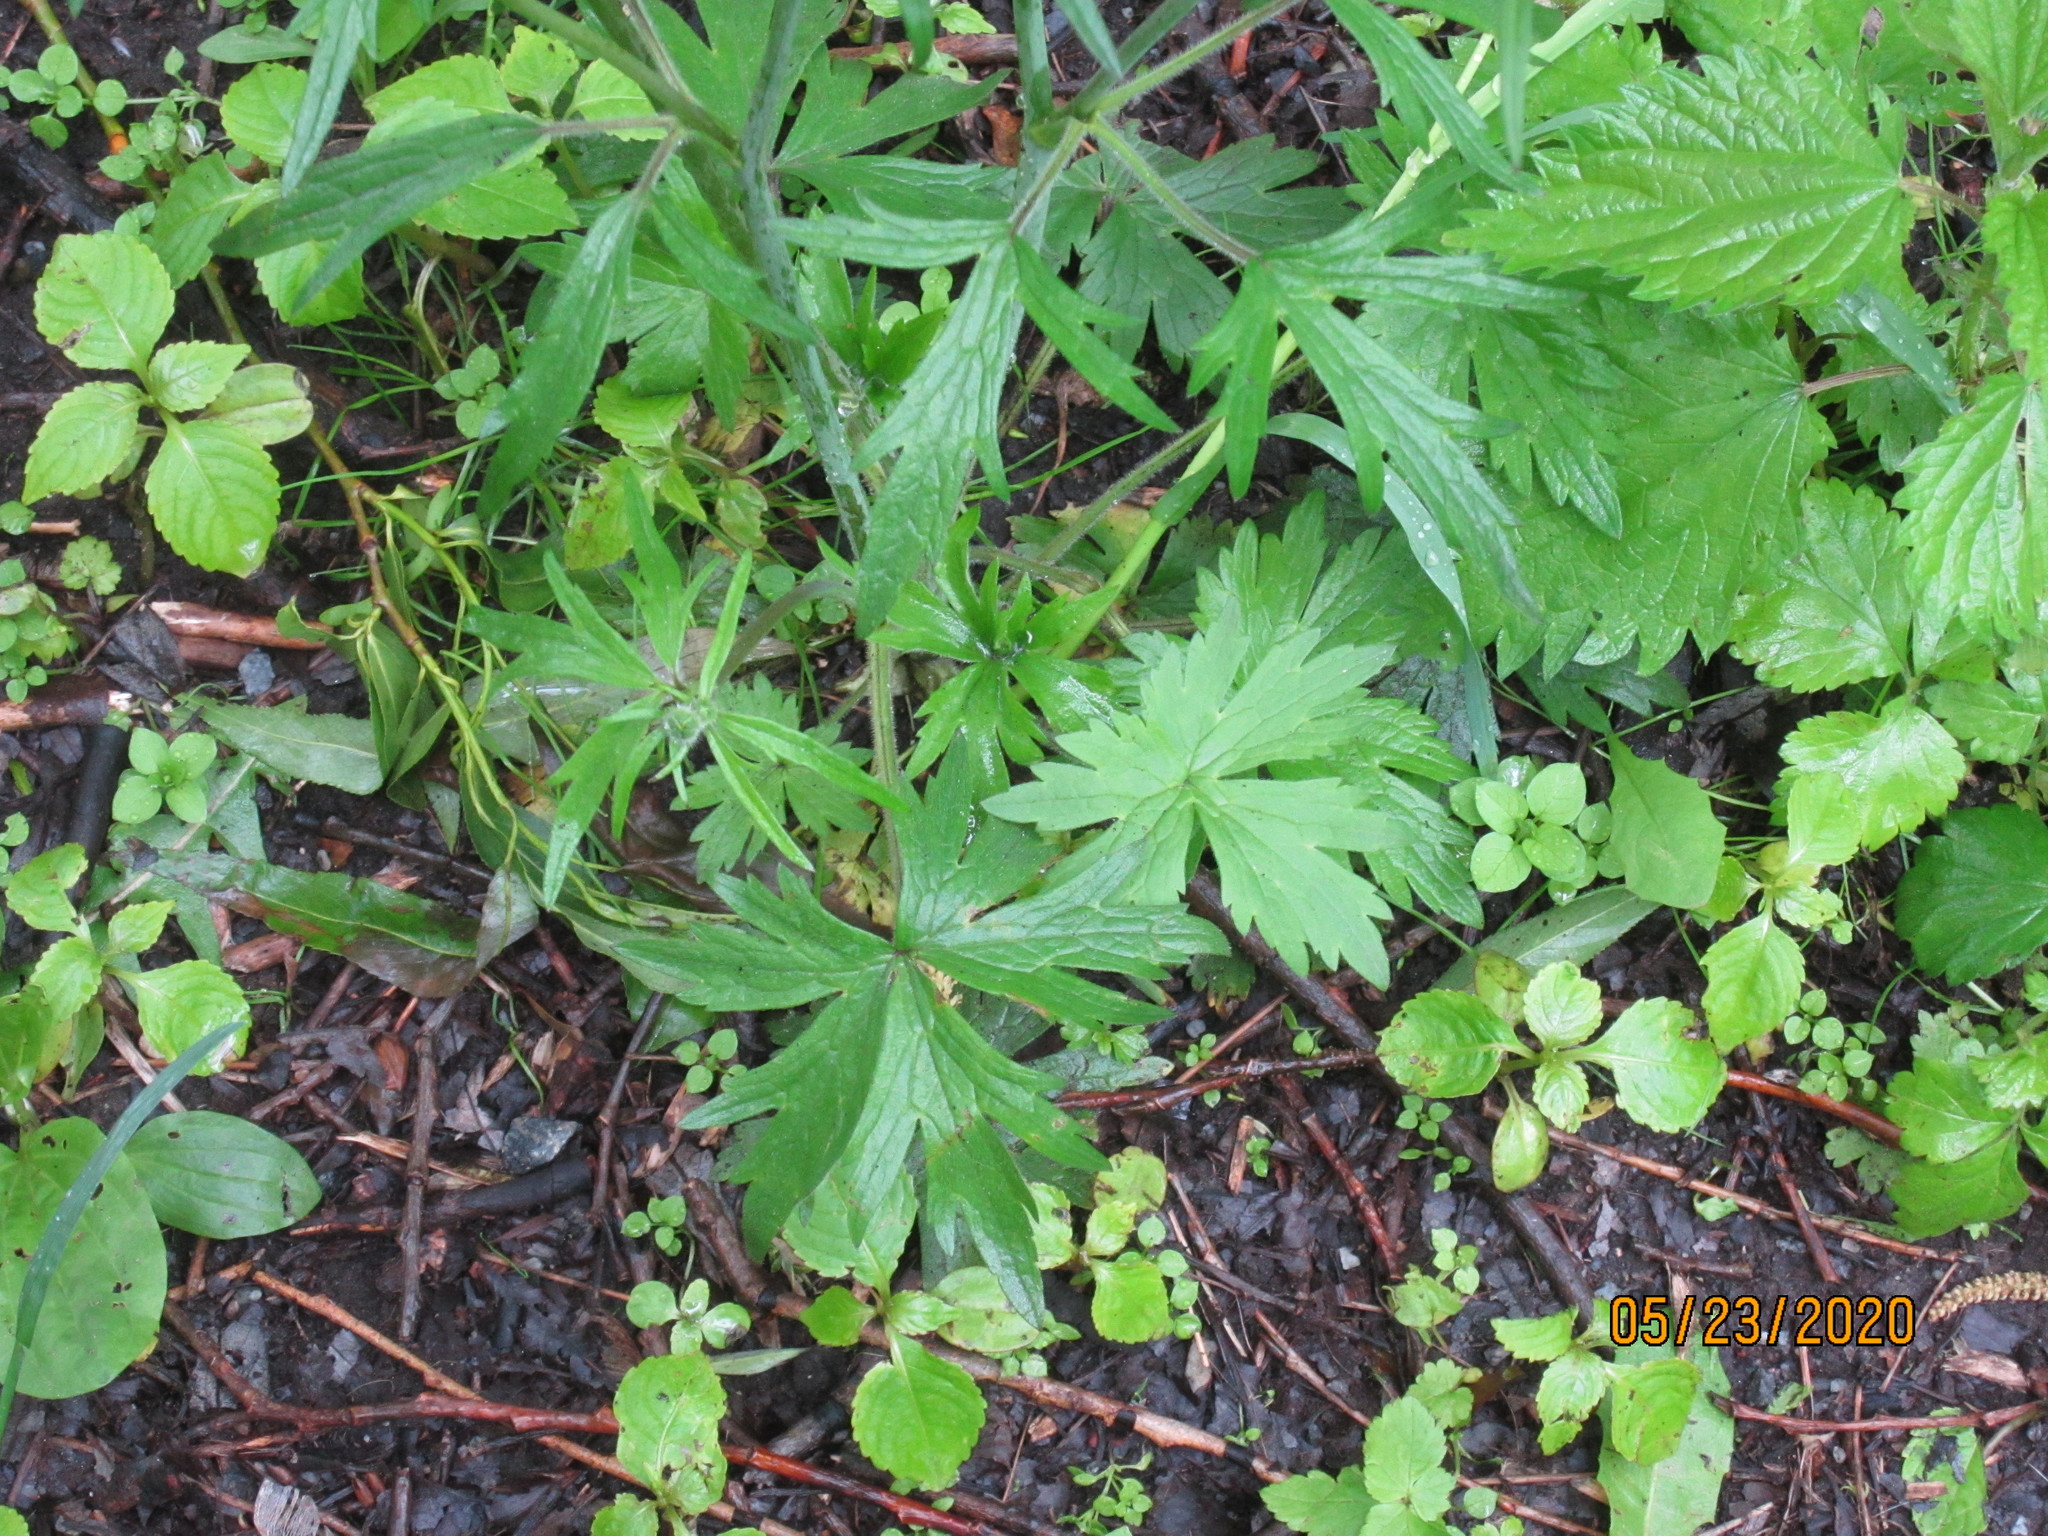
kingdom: Plantae
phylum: Tracheophyta
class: Magnoliopsida
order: Ranunculales
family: Ranunculaceae
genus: Ranunculus
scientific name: Ranunculus polyanthemos
